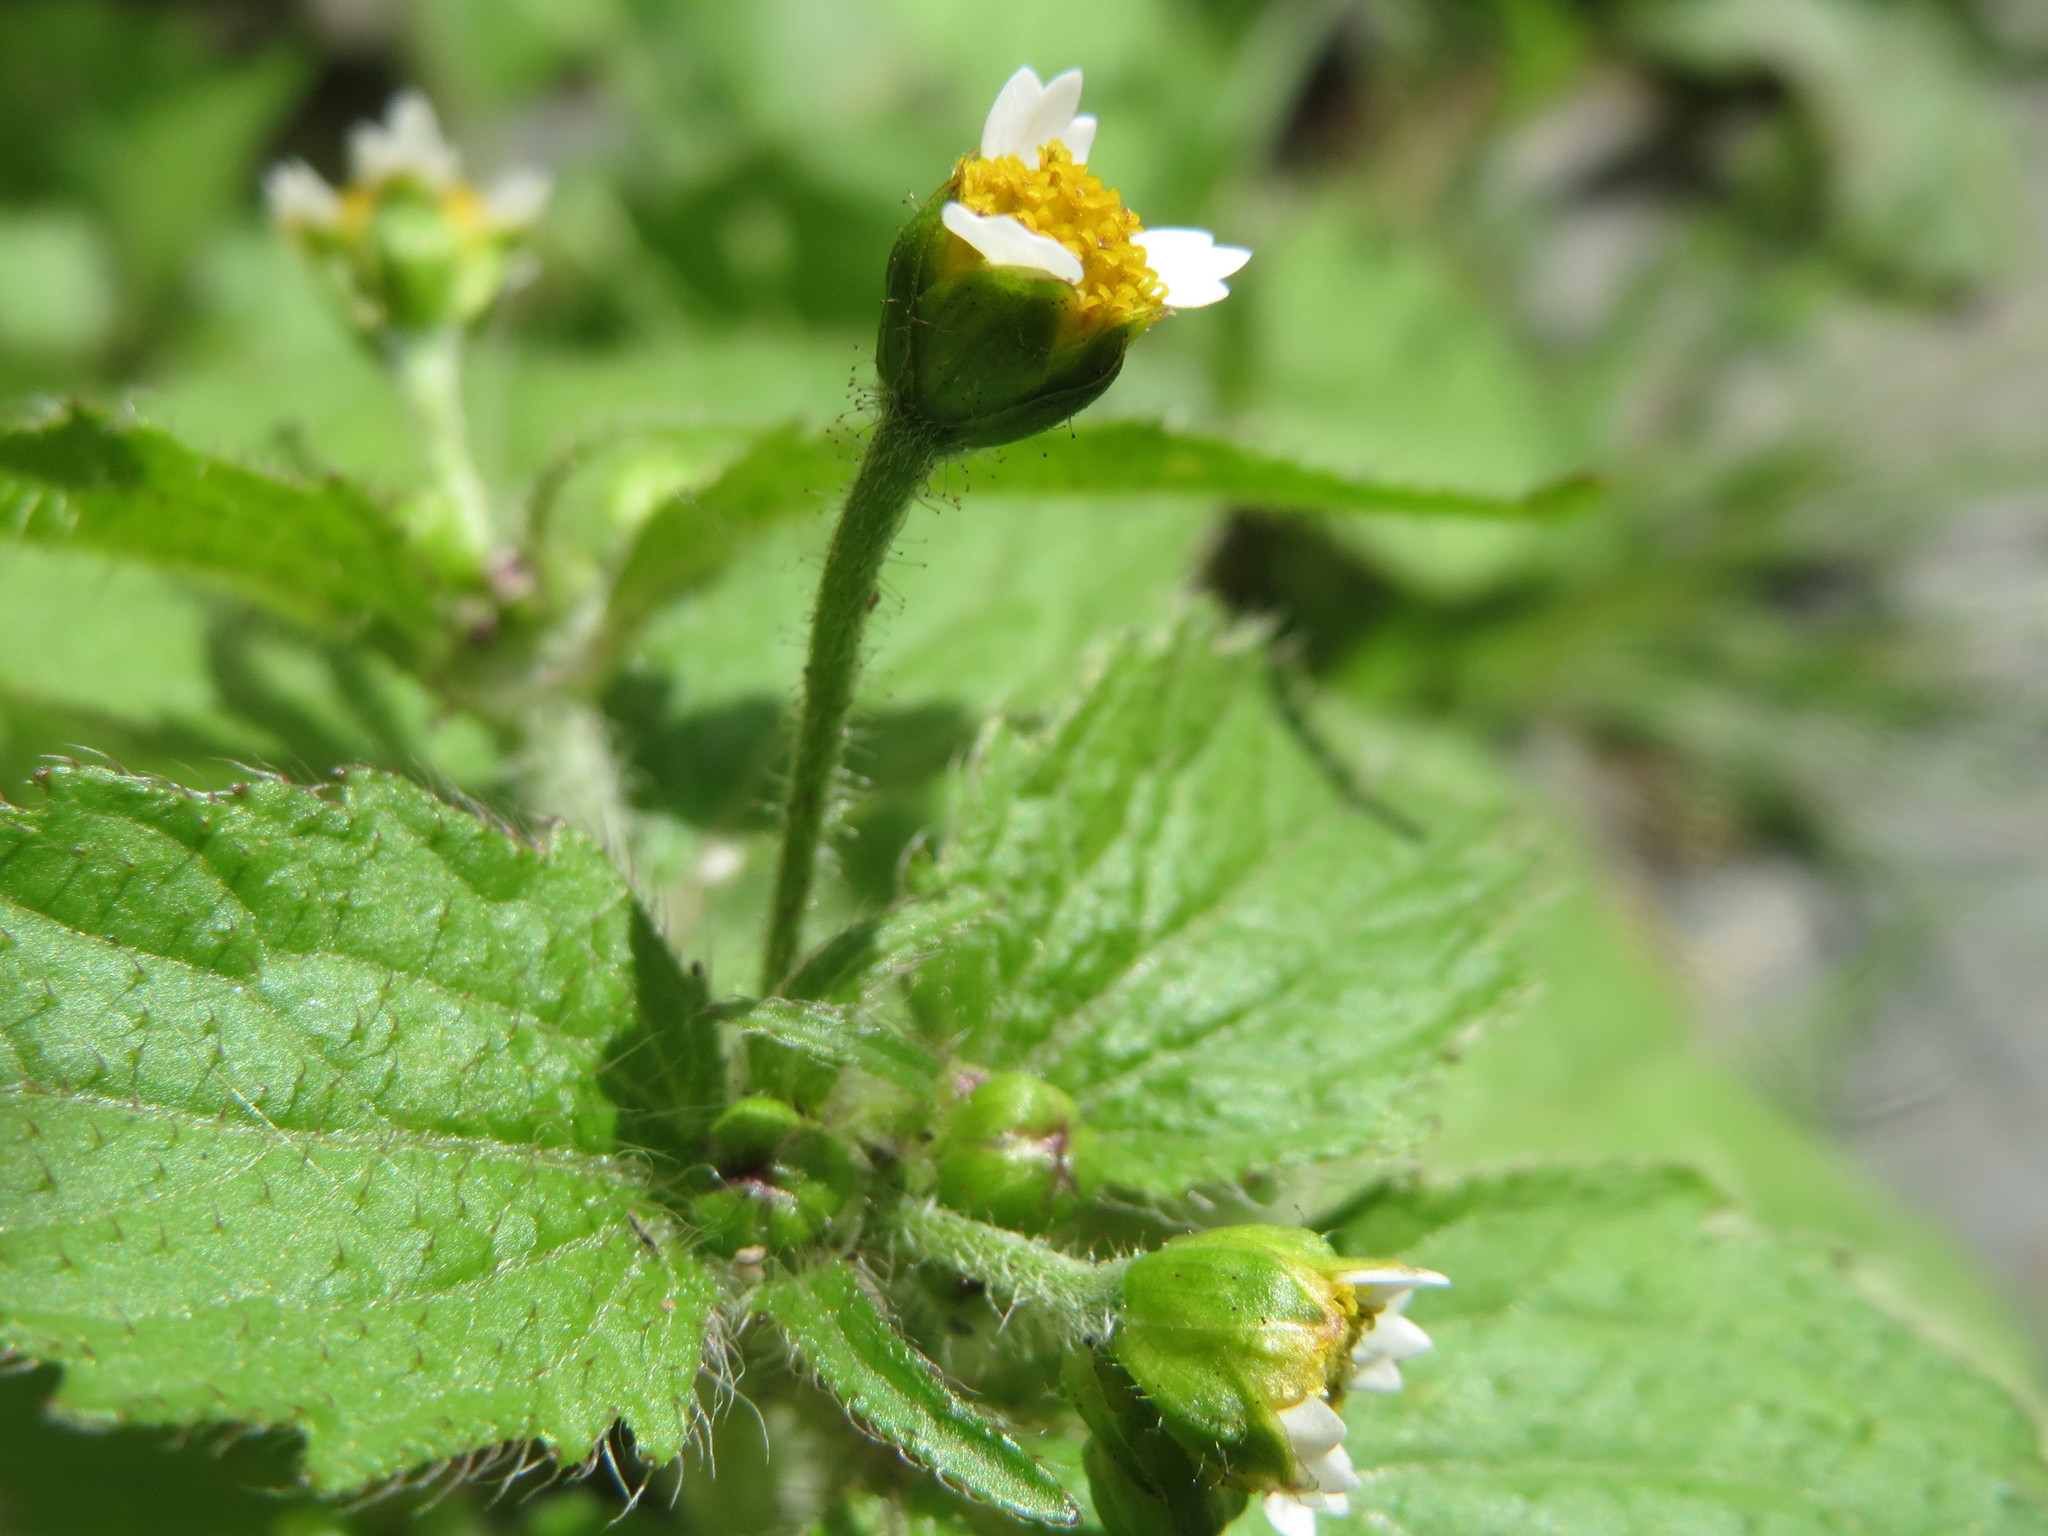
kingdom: Plantae
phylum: Tracheophyta
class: Magnoliopsida
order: Asterales
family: Asteraceae
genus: Galinsoga
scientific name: Galinsoga quadriradiata
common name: Shaggy soldier
